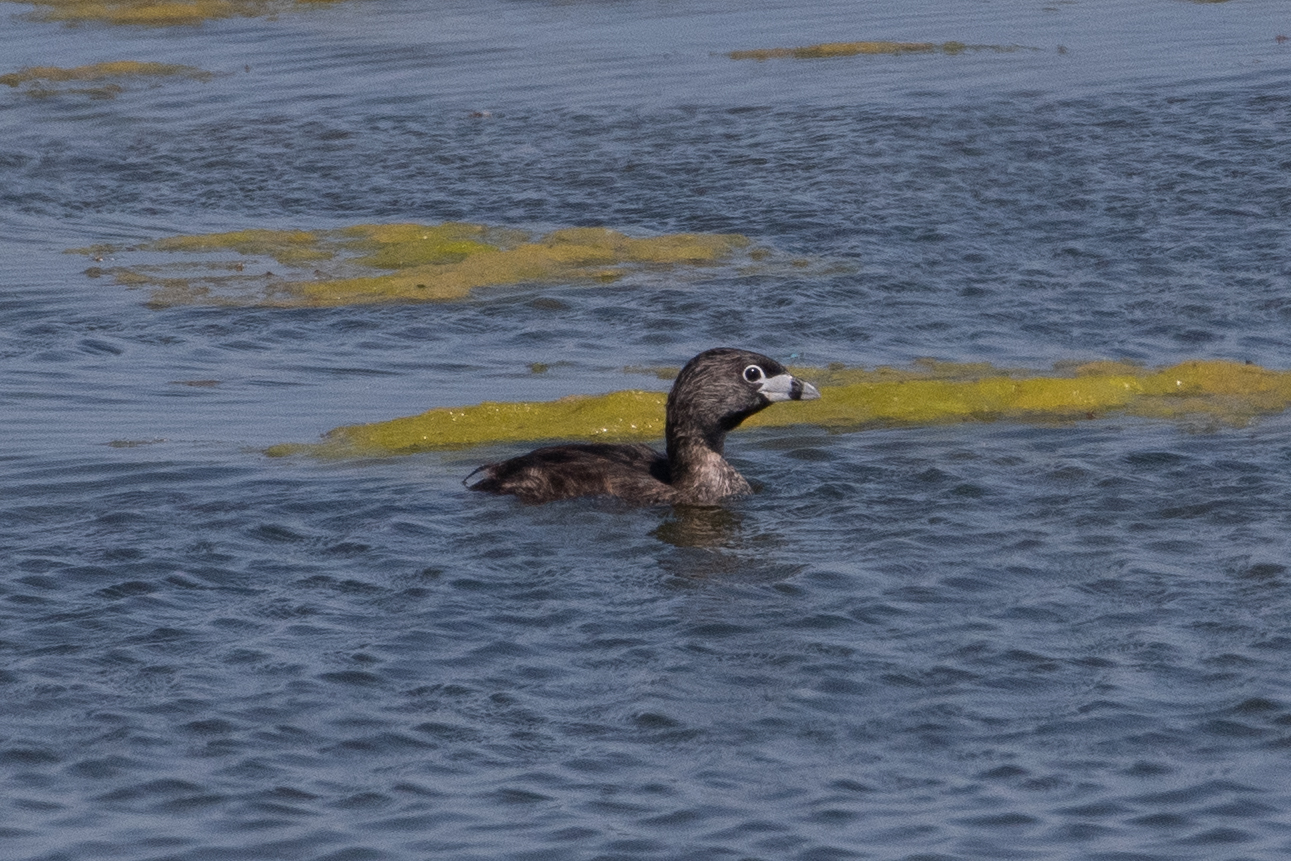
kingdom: Animalia
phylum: Chordata
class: Aves
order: Podicipediformes
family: Podicipedidae
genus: Podilymbus
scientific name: Podilymbus podiceps
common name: Pied-billed grebe
